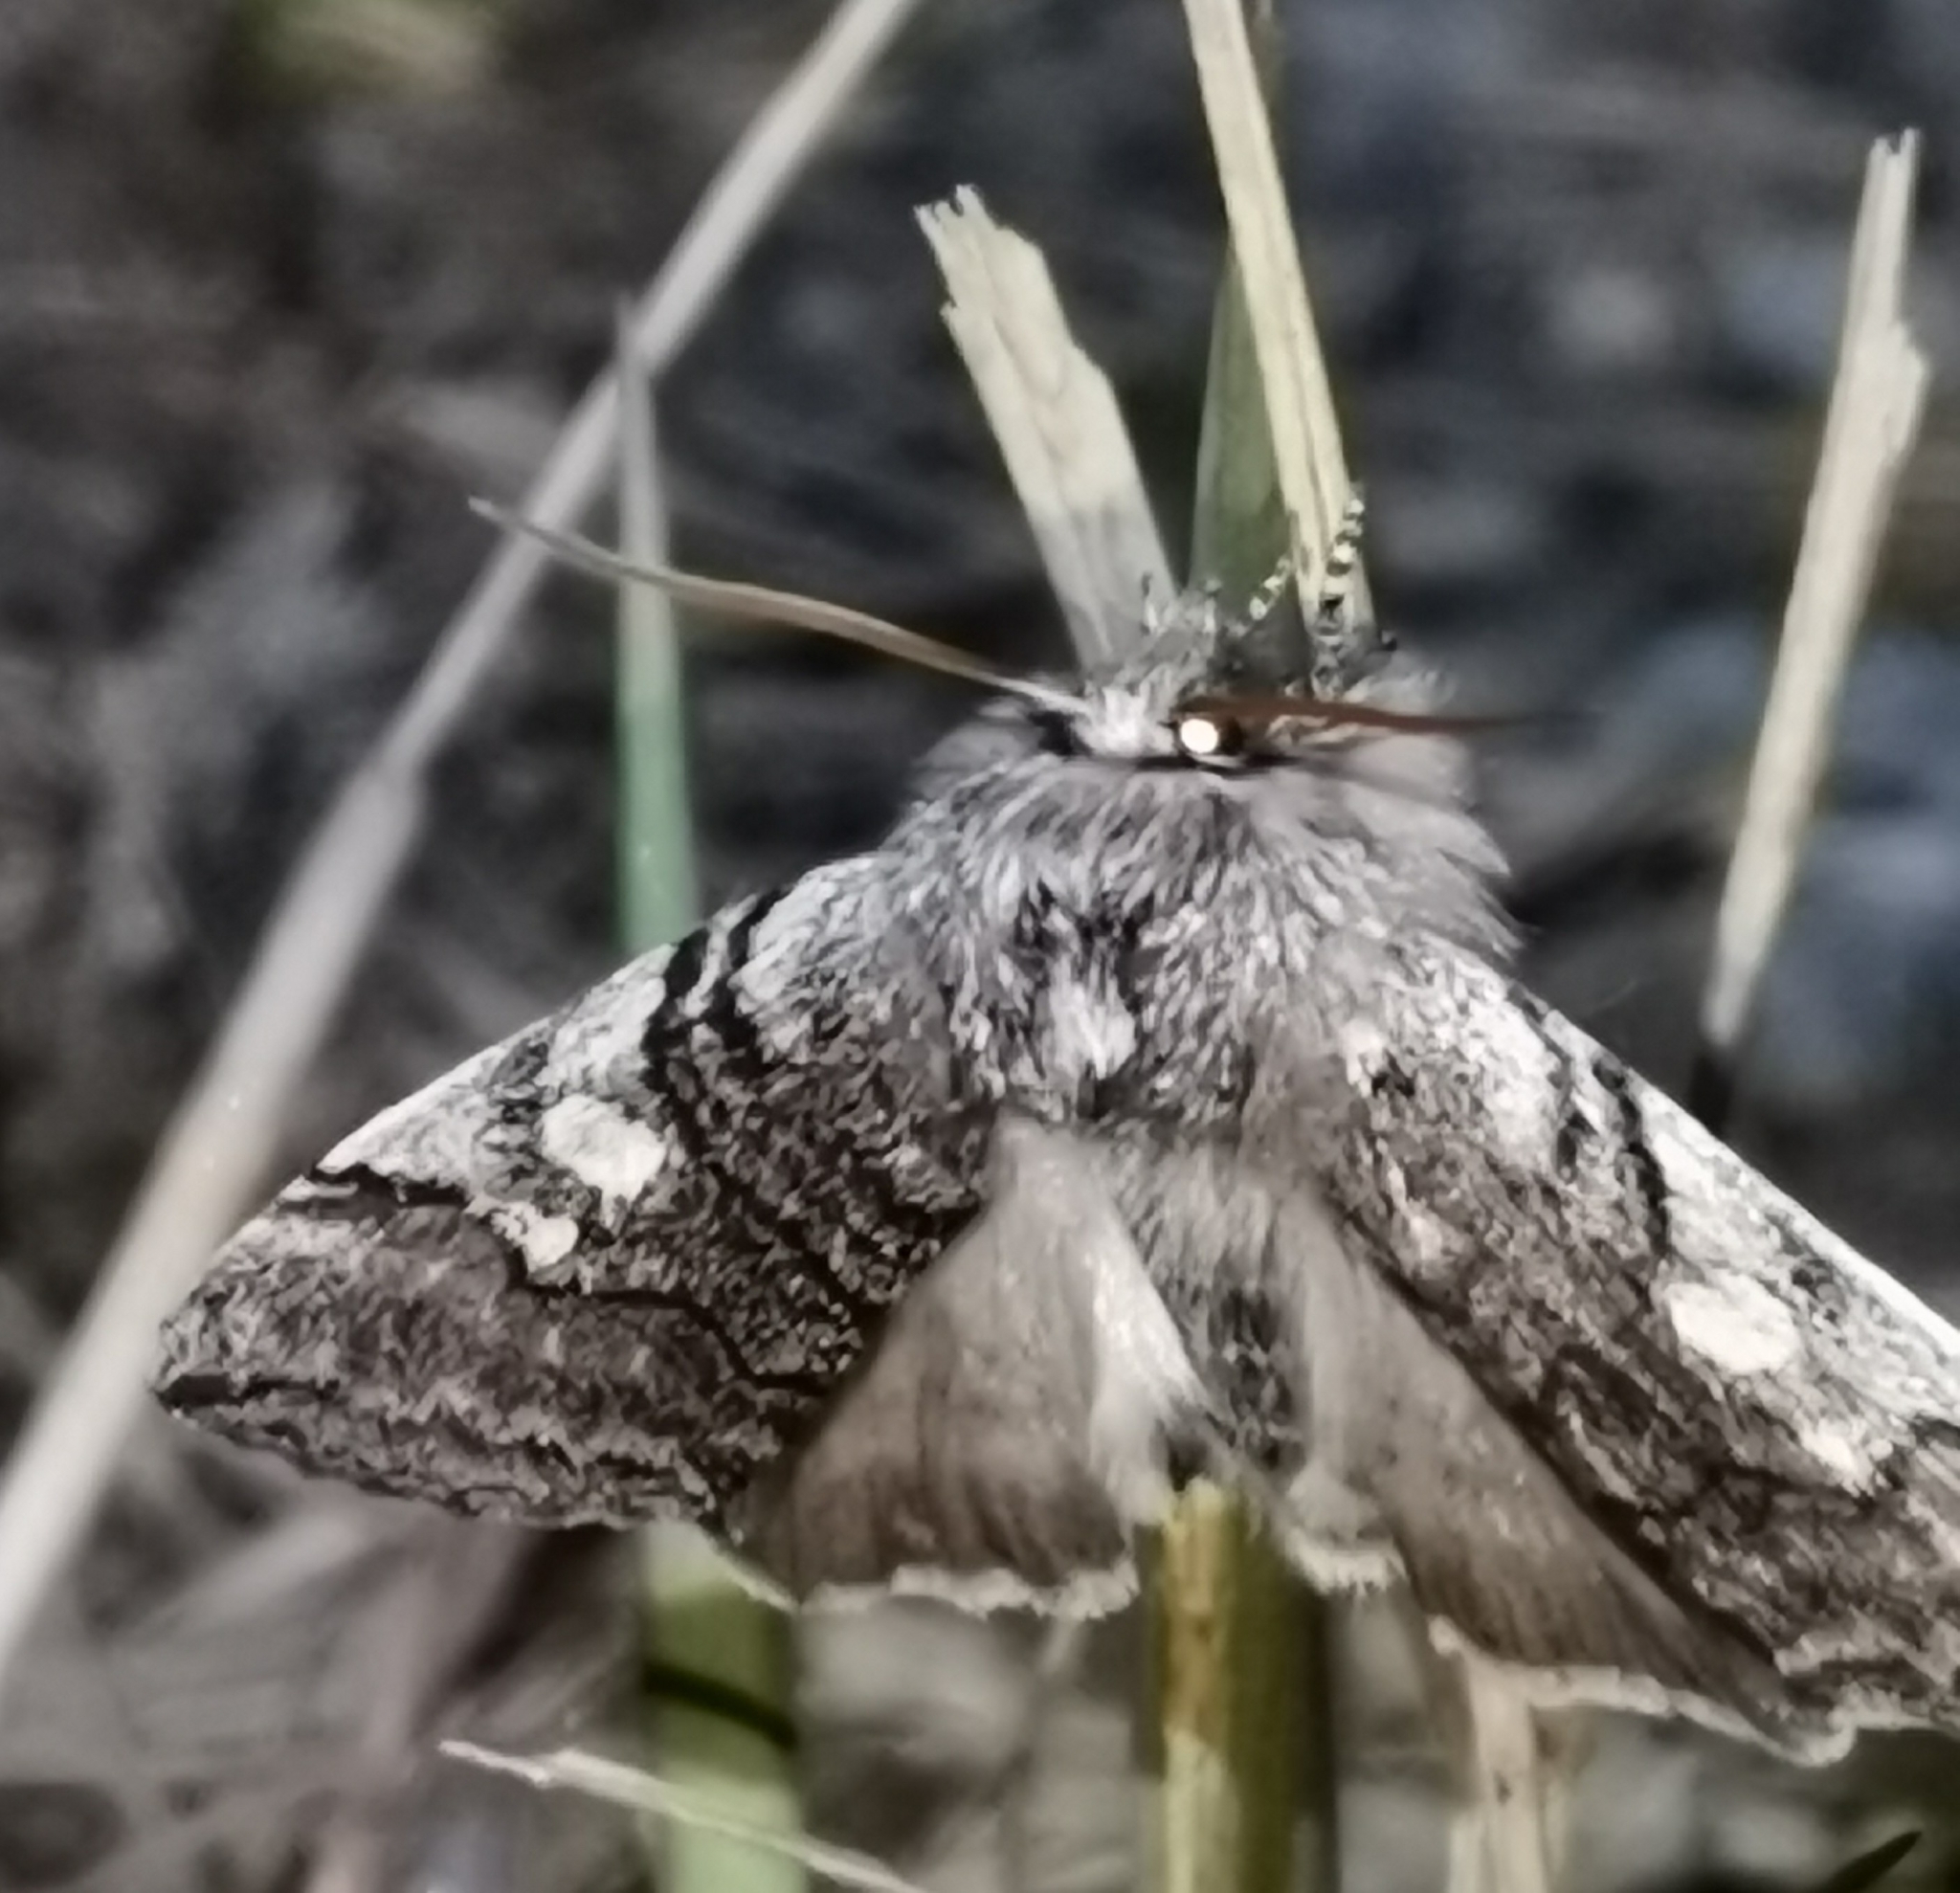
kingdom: Animalia
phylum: Arthropoda
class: Insecta
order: Lepidoptera
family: Drepanidae
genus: Achlya
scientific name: Achlya flavicornis
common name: Yellow horned
